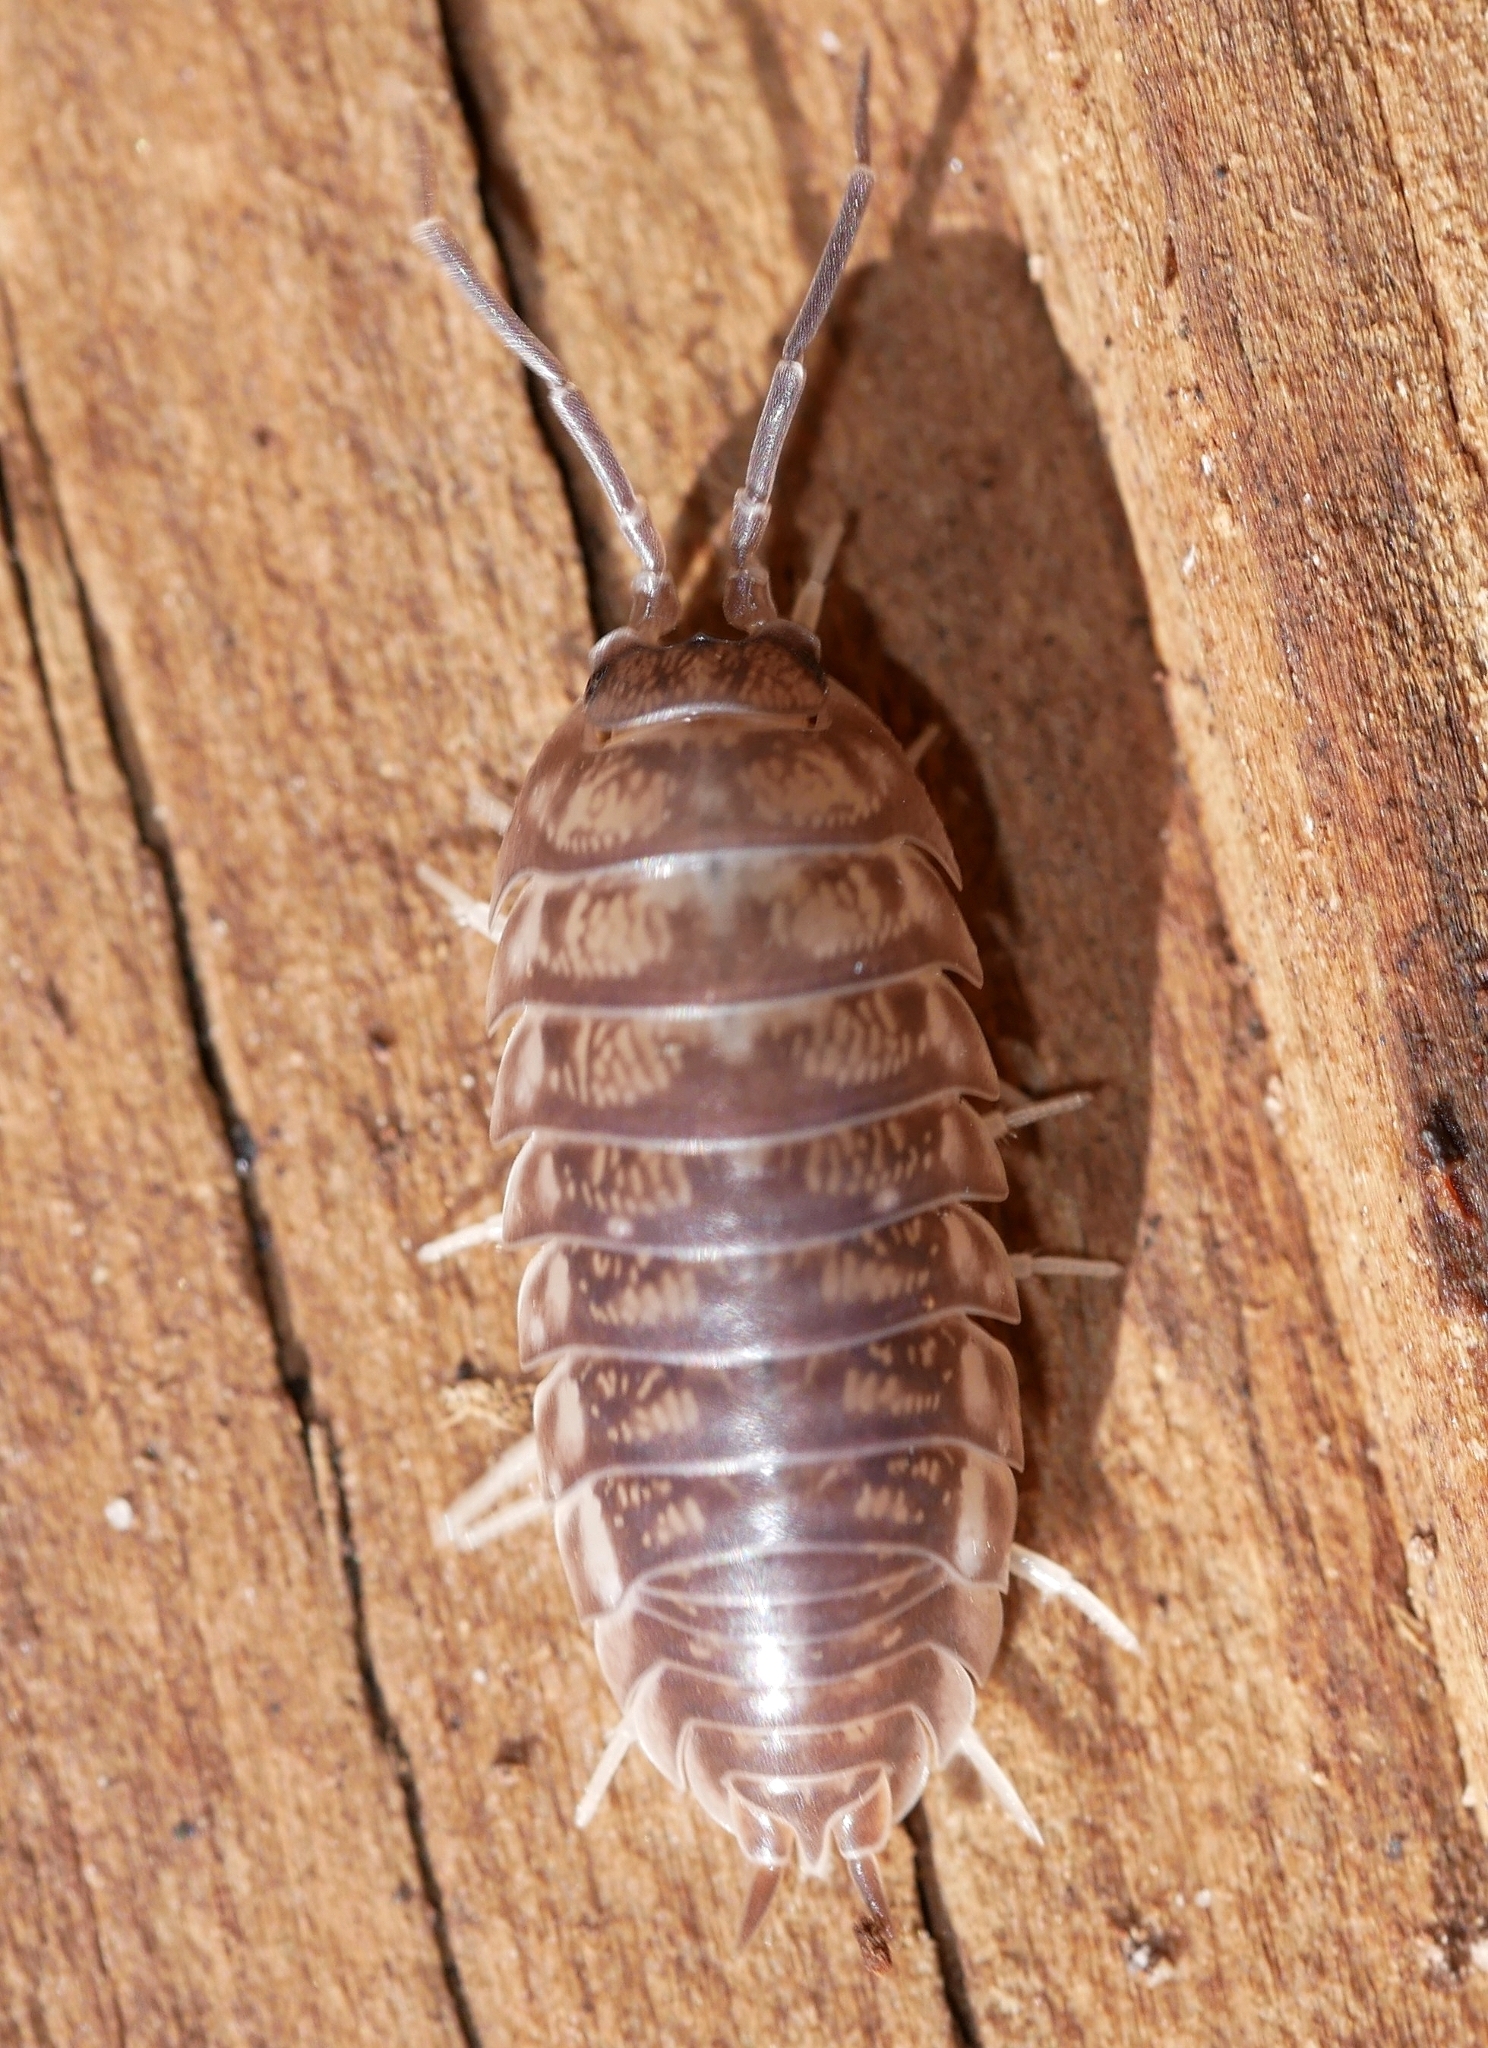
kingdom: Animalia
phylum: Arthropoda
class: Malacostraca
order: Isopoda
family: Cylisticidae
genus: Cylisticus
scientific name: Cylisticus convexus
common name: Curly woodlouse
